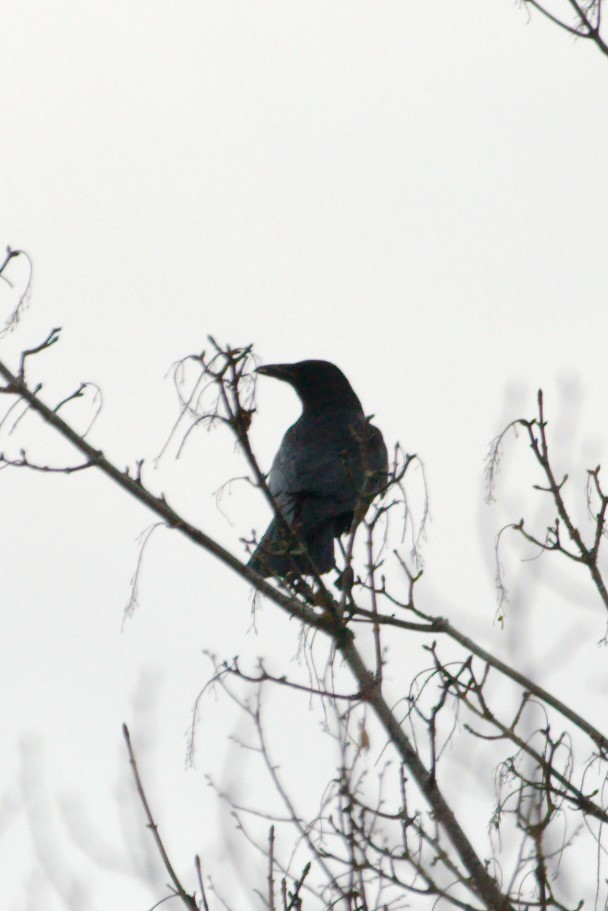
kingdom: Animalia
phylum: Chordata
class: Aves
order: Passeriformes
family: Corvidae
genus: Corvus
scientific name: Corvus corone
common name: Carrion crow
